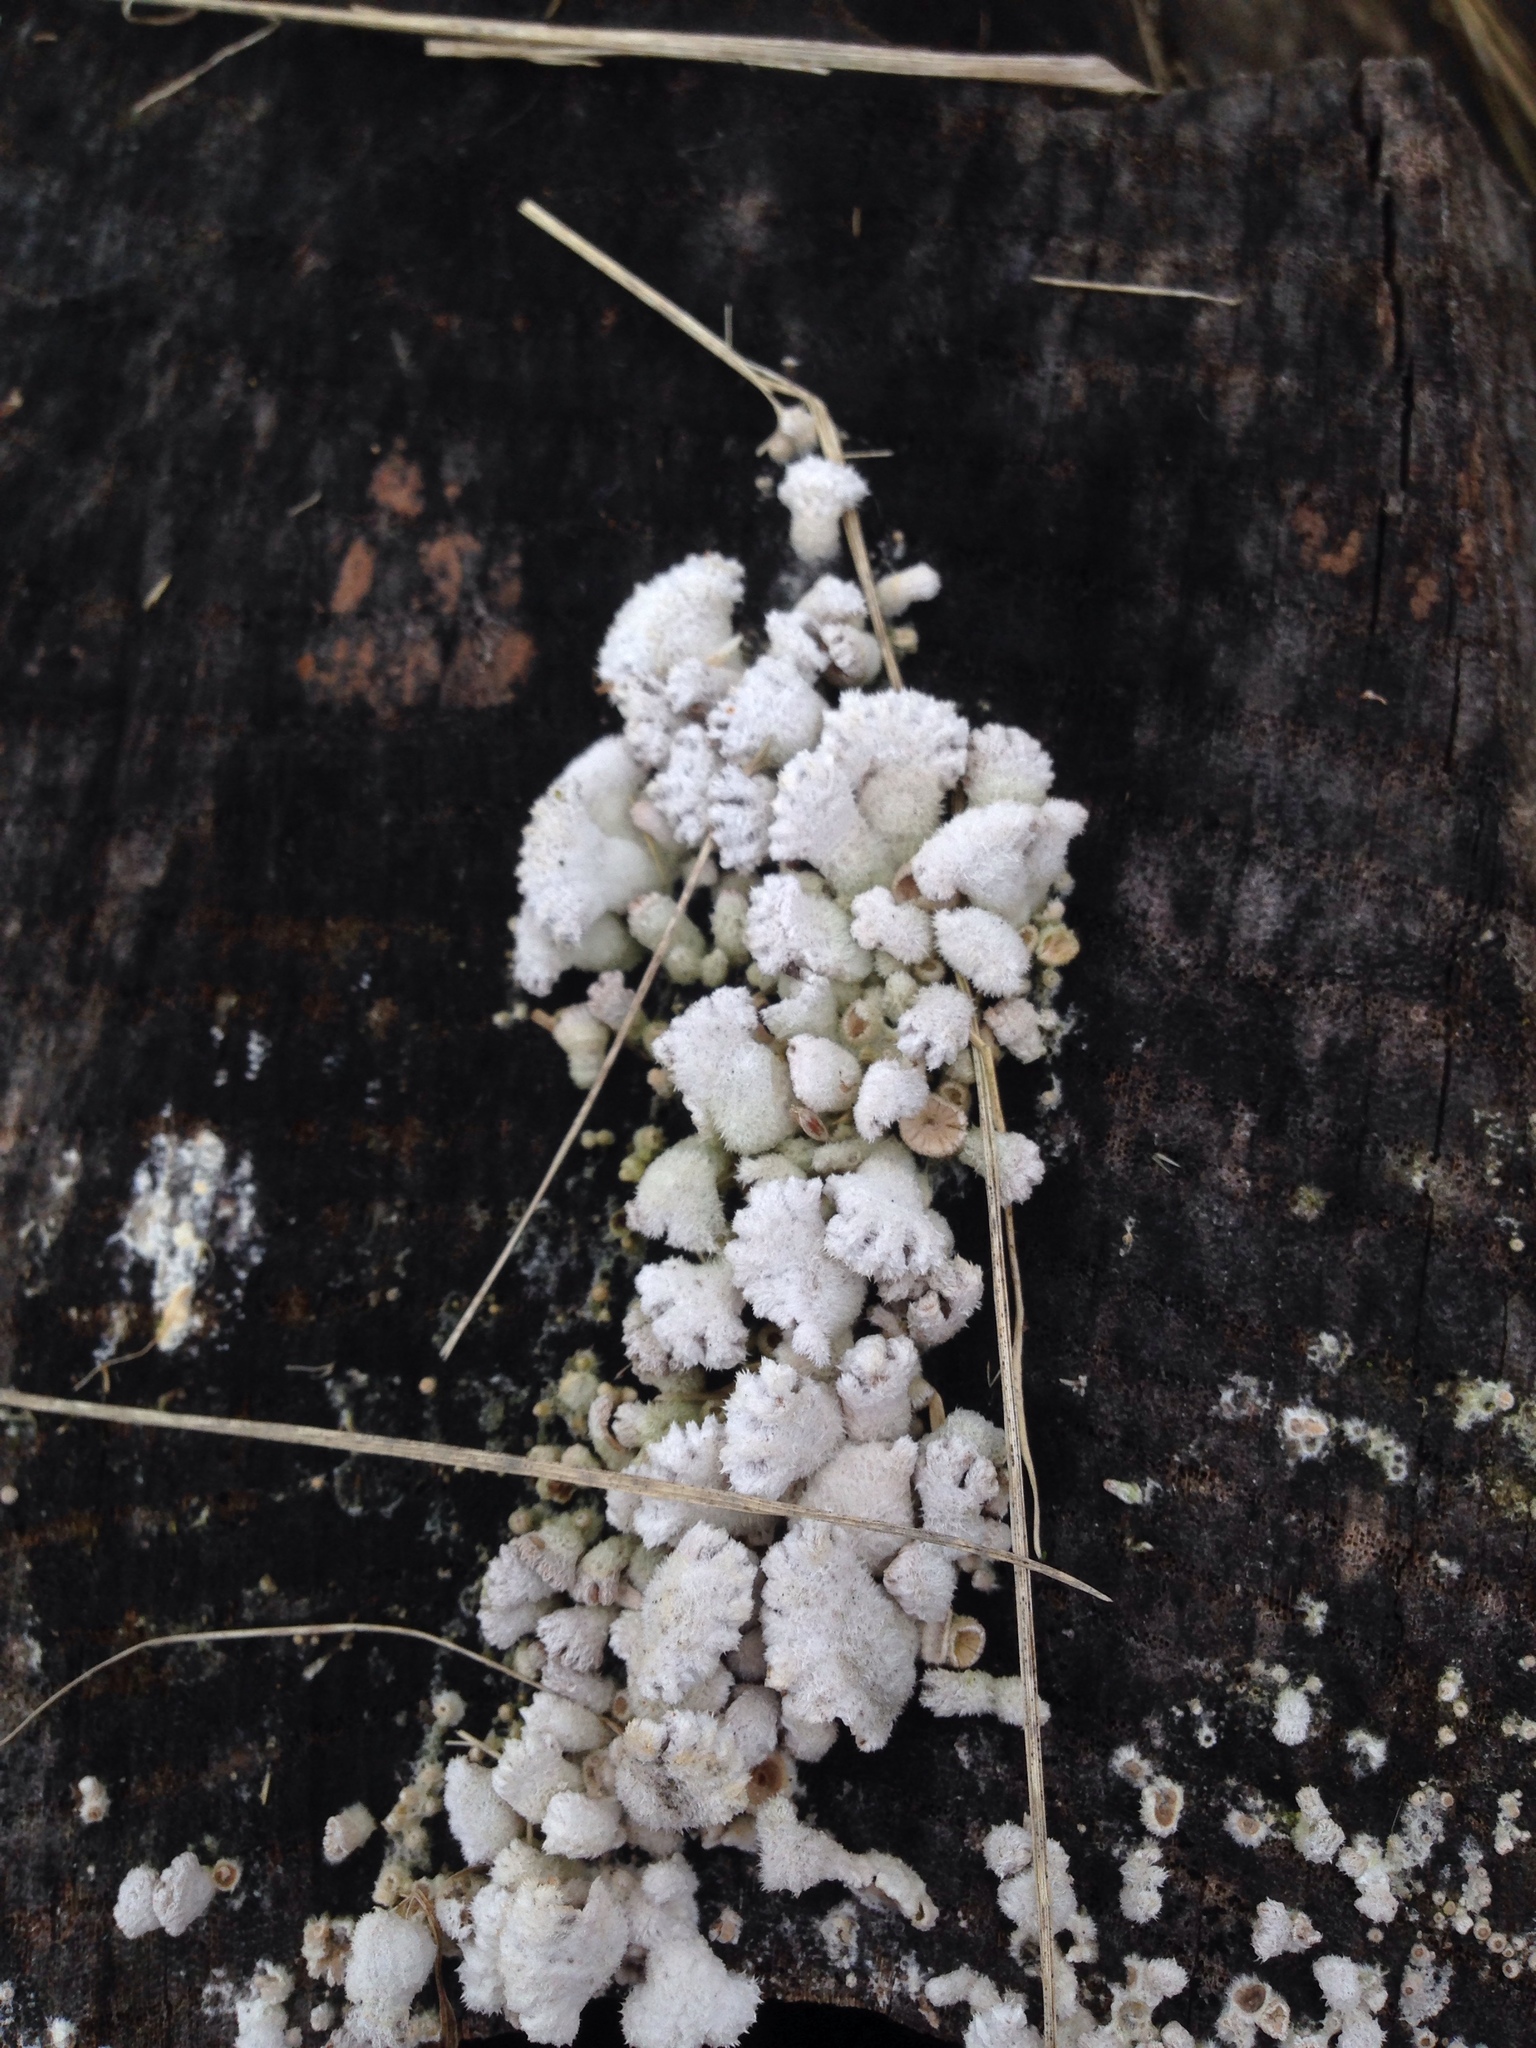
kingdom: Fungi
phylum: Basidiomycota
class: Agaricomycetes
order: Agaricales
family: Schizophyllaceae
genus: Schizophyllum
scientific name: Schizophyllum commune
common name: Common porecrust
